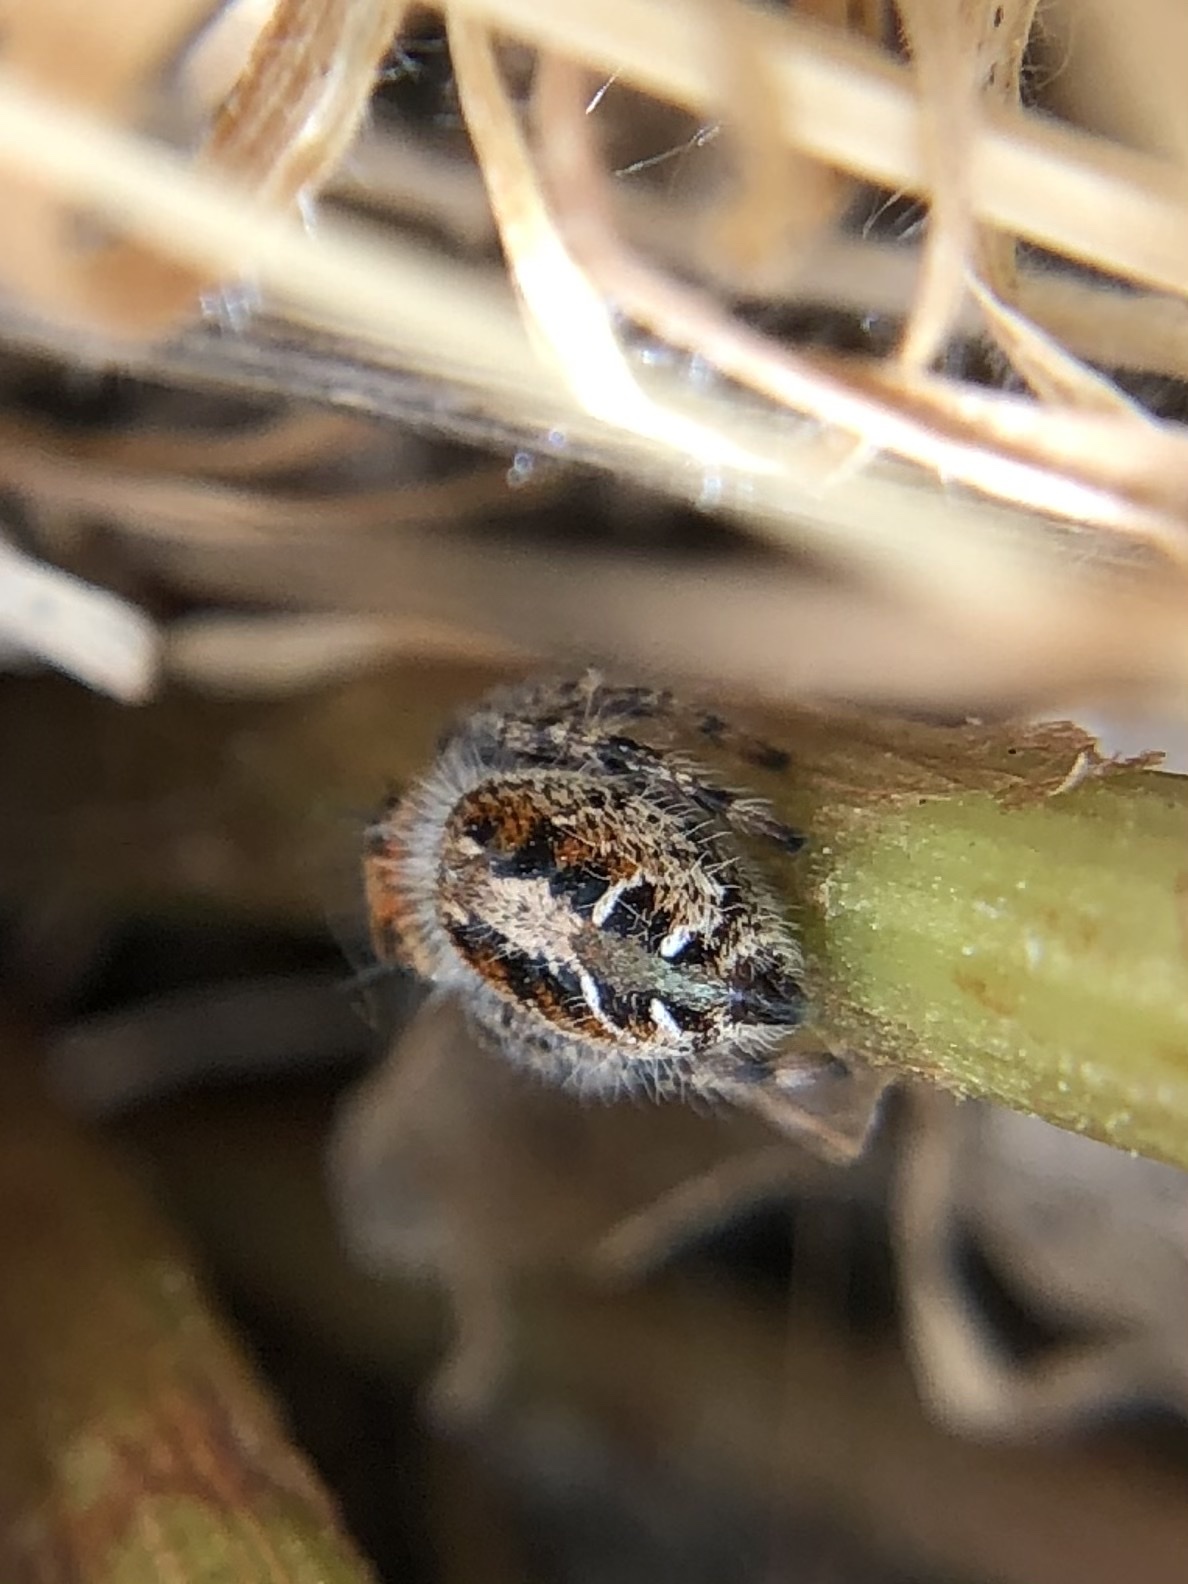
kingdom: Animalia
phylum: Arthropoda
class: Arachnida
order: Araneae
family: Salticidae
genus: Phidippus
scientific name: Phidippus comatus
